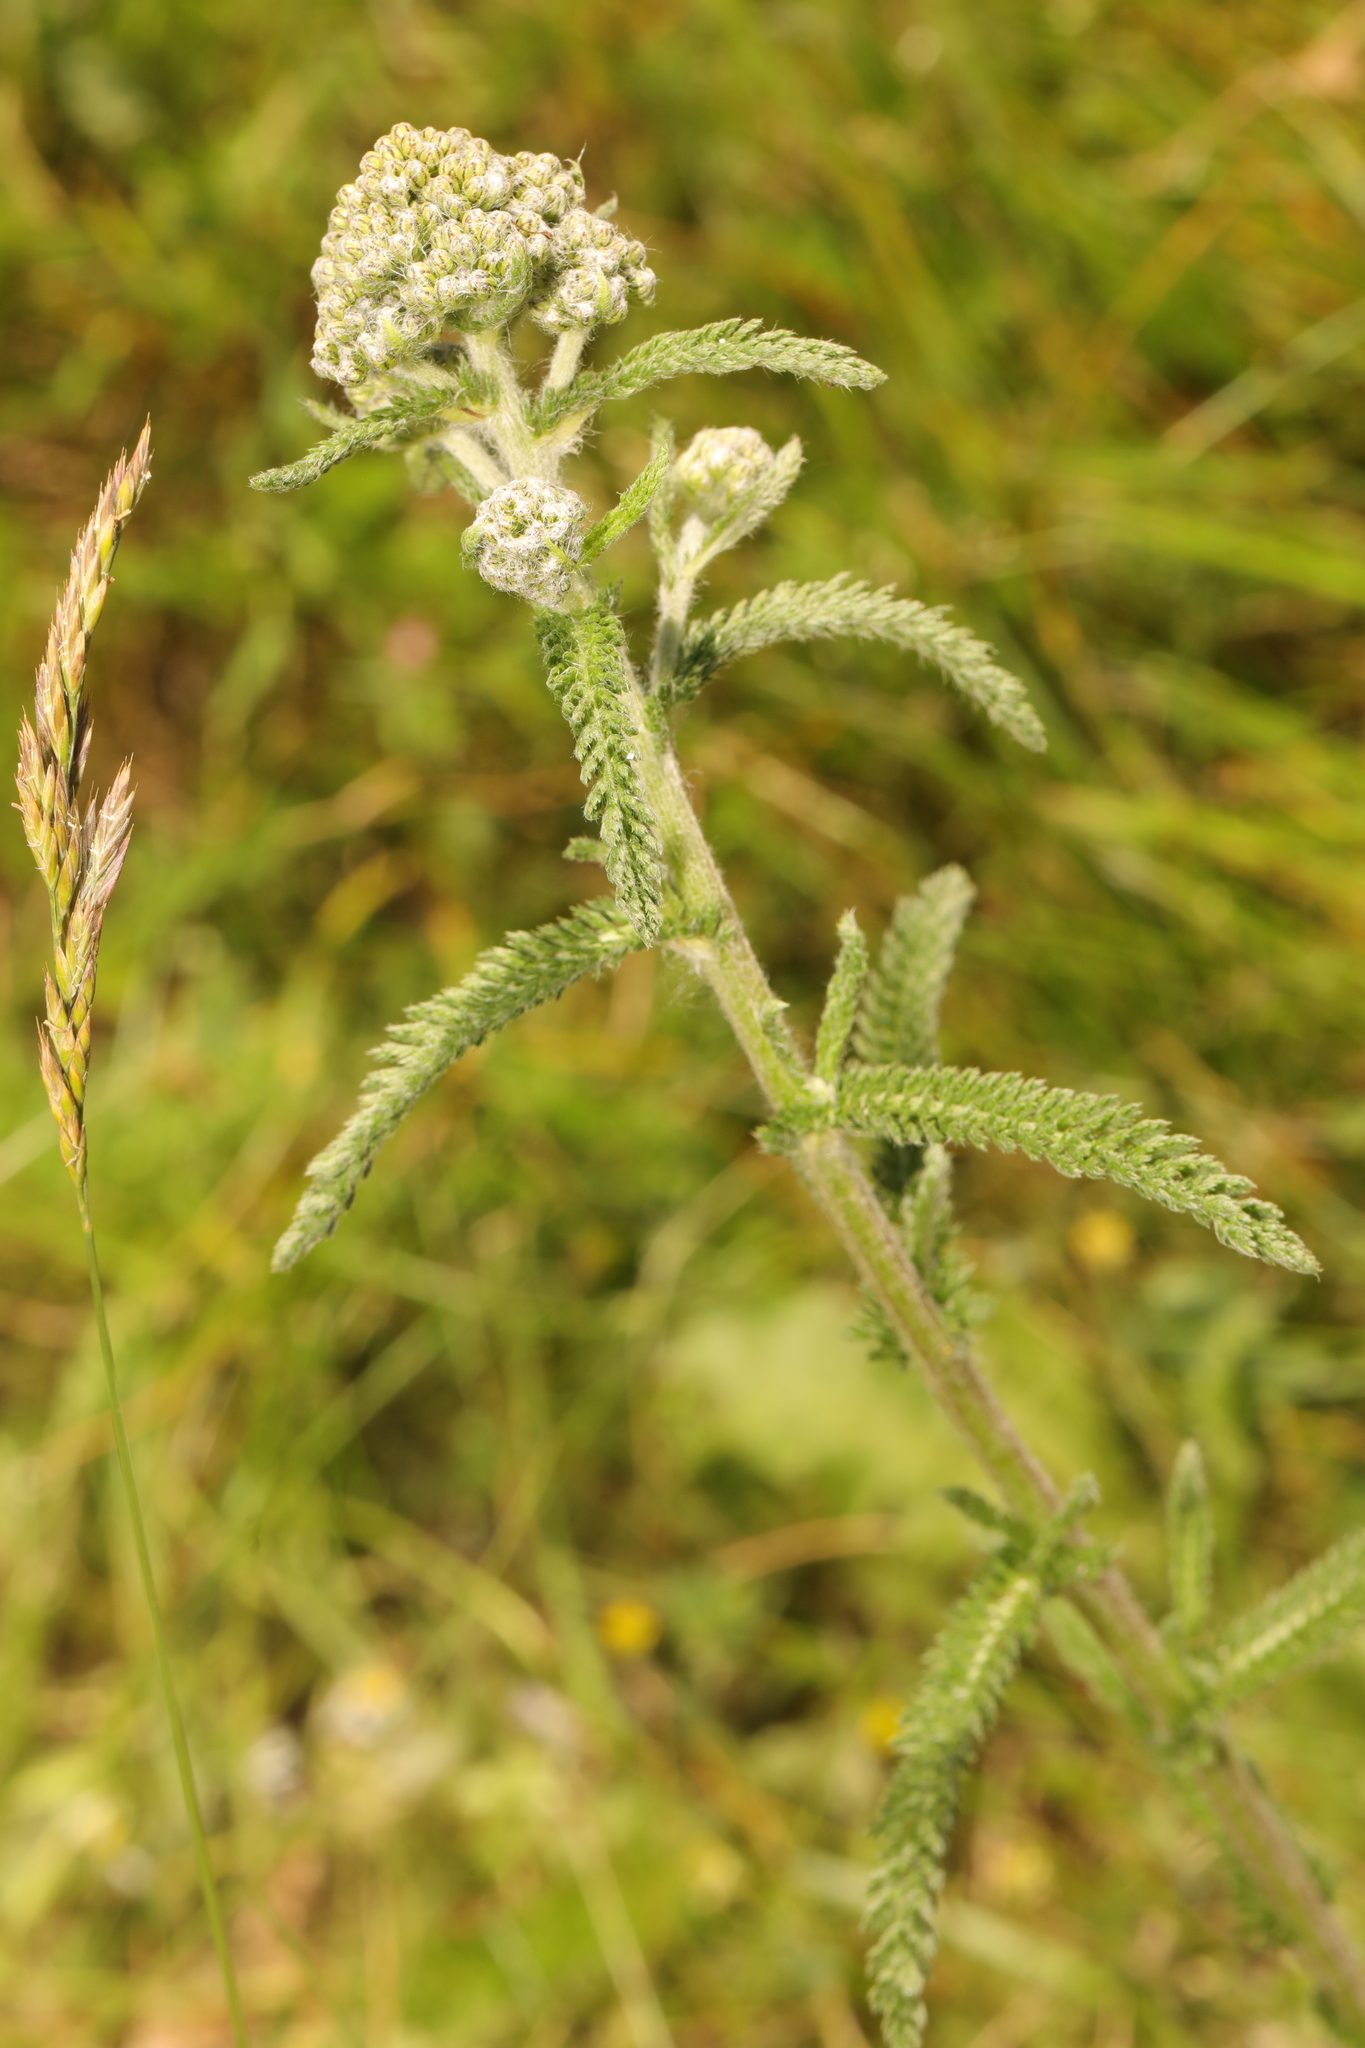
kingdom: Plantae
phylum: Tracheophyta
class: Magnoliopsida
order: Asterales
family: Asteraceae
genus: Achillea
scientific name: Achillea millefolium
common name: Yarrow
